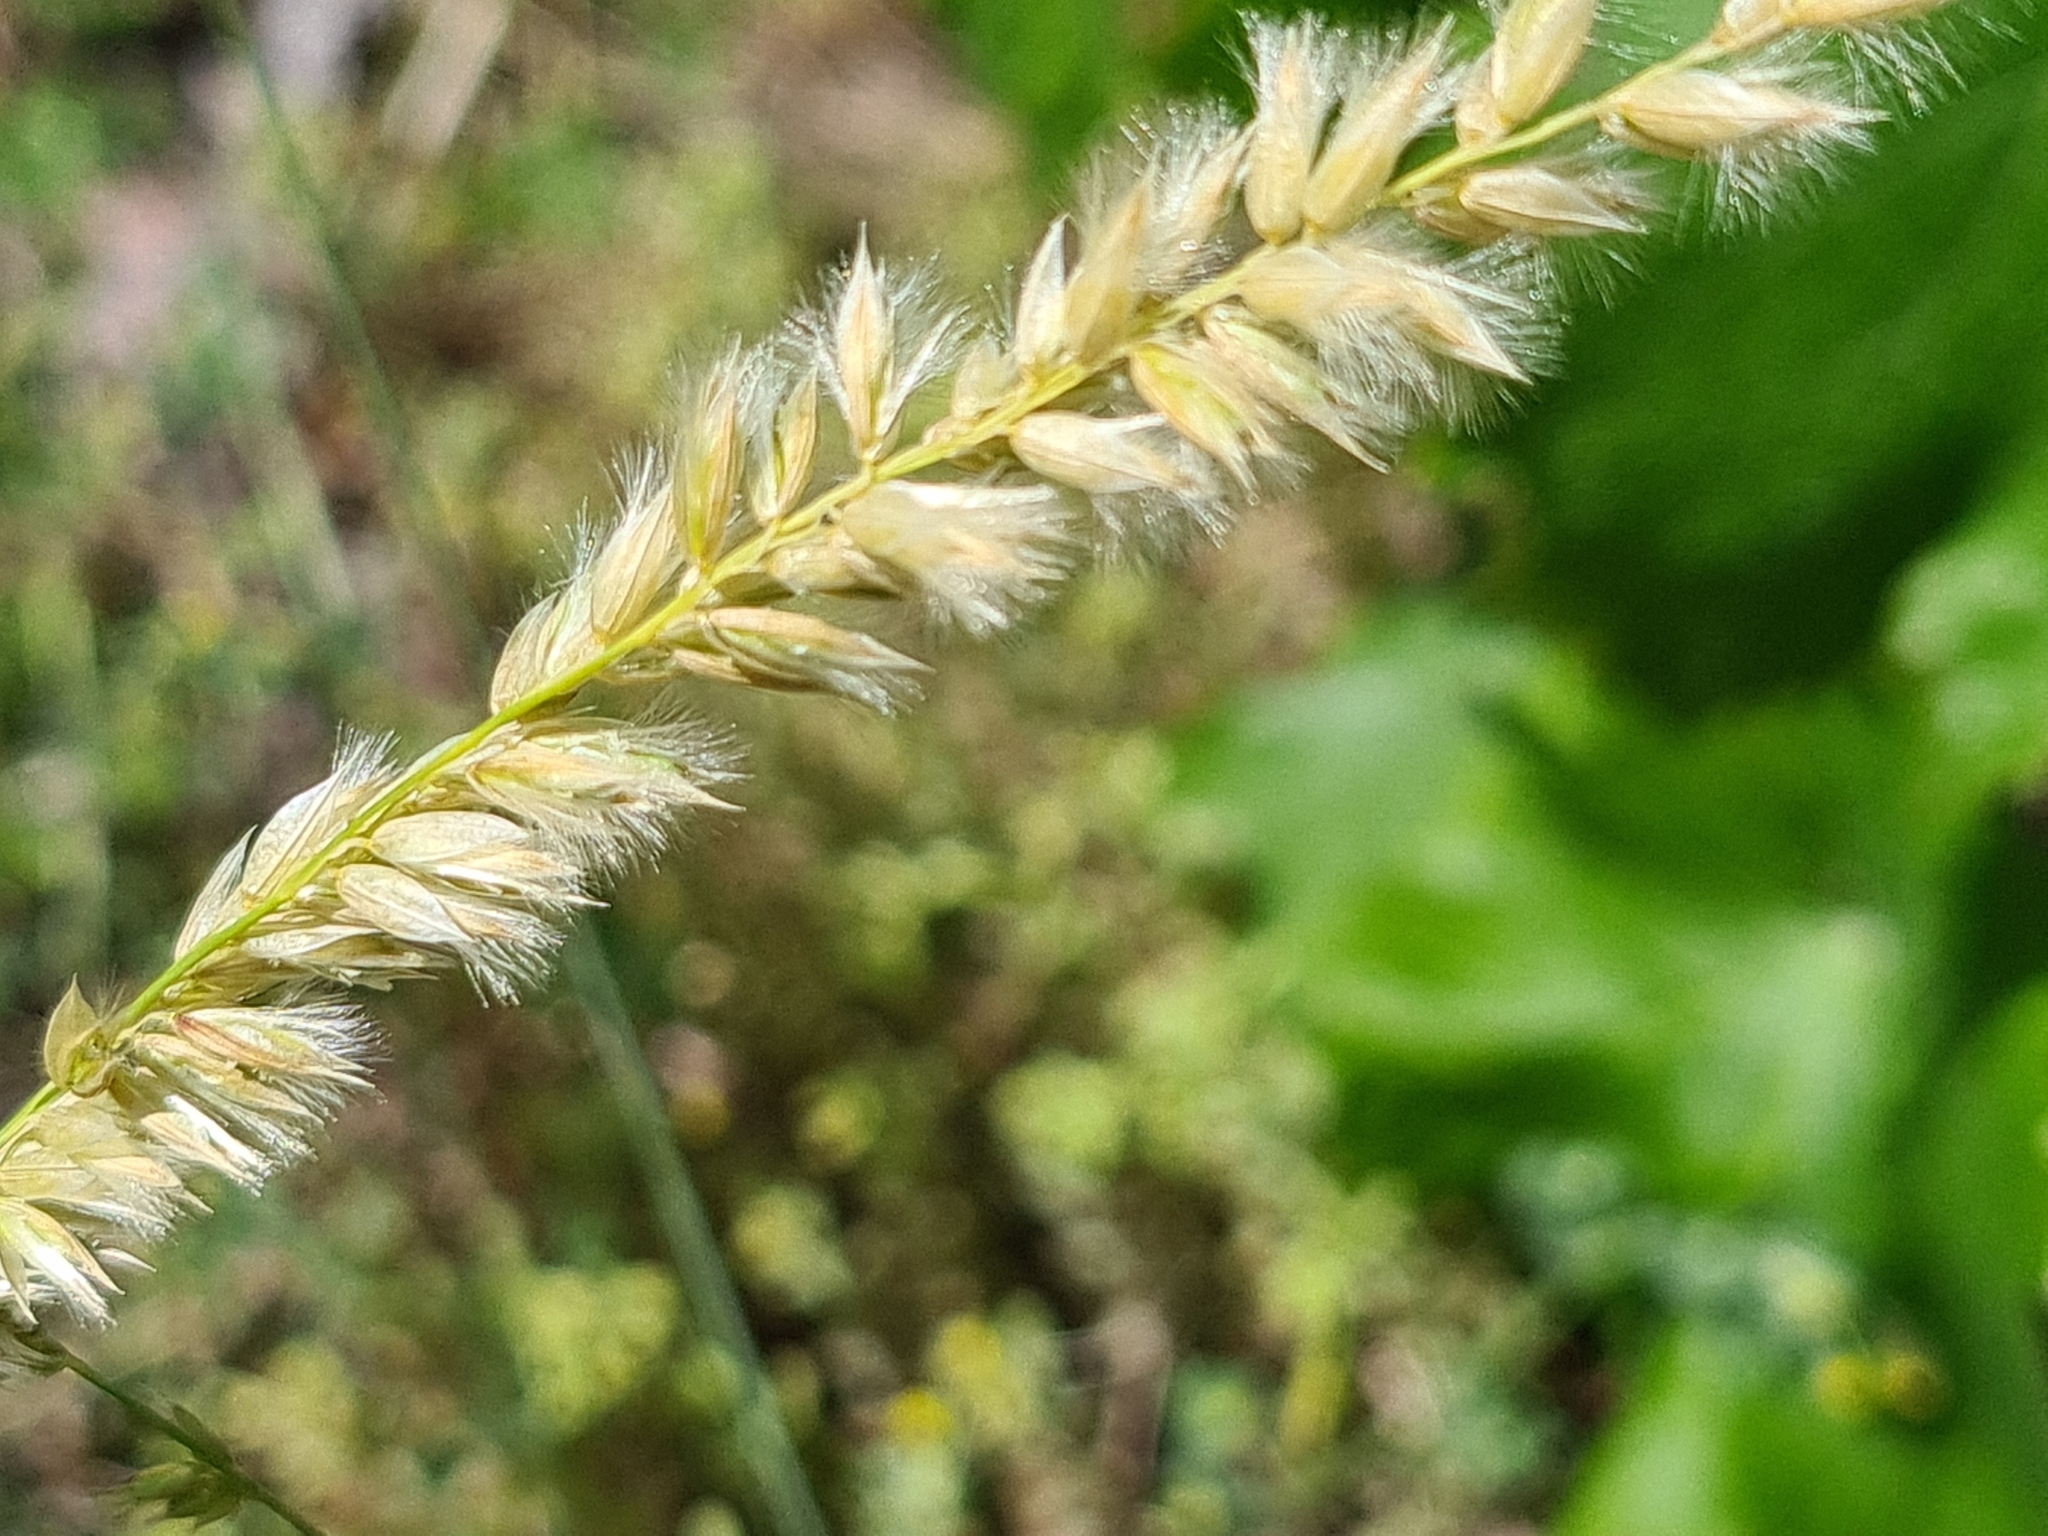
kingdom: Plantae
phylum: Tracheophyta
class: Liliopsida
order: Poales
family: Poaceae
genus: Melica
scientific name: Melica ciliata
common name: Hairy melicgrass
